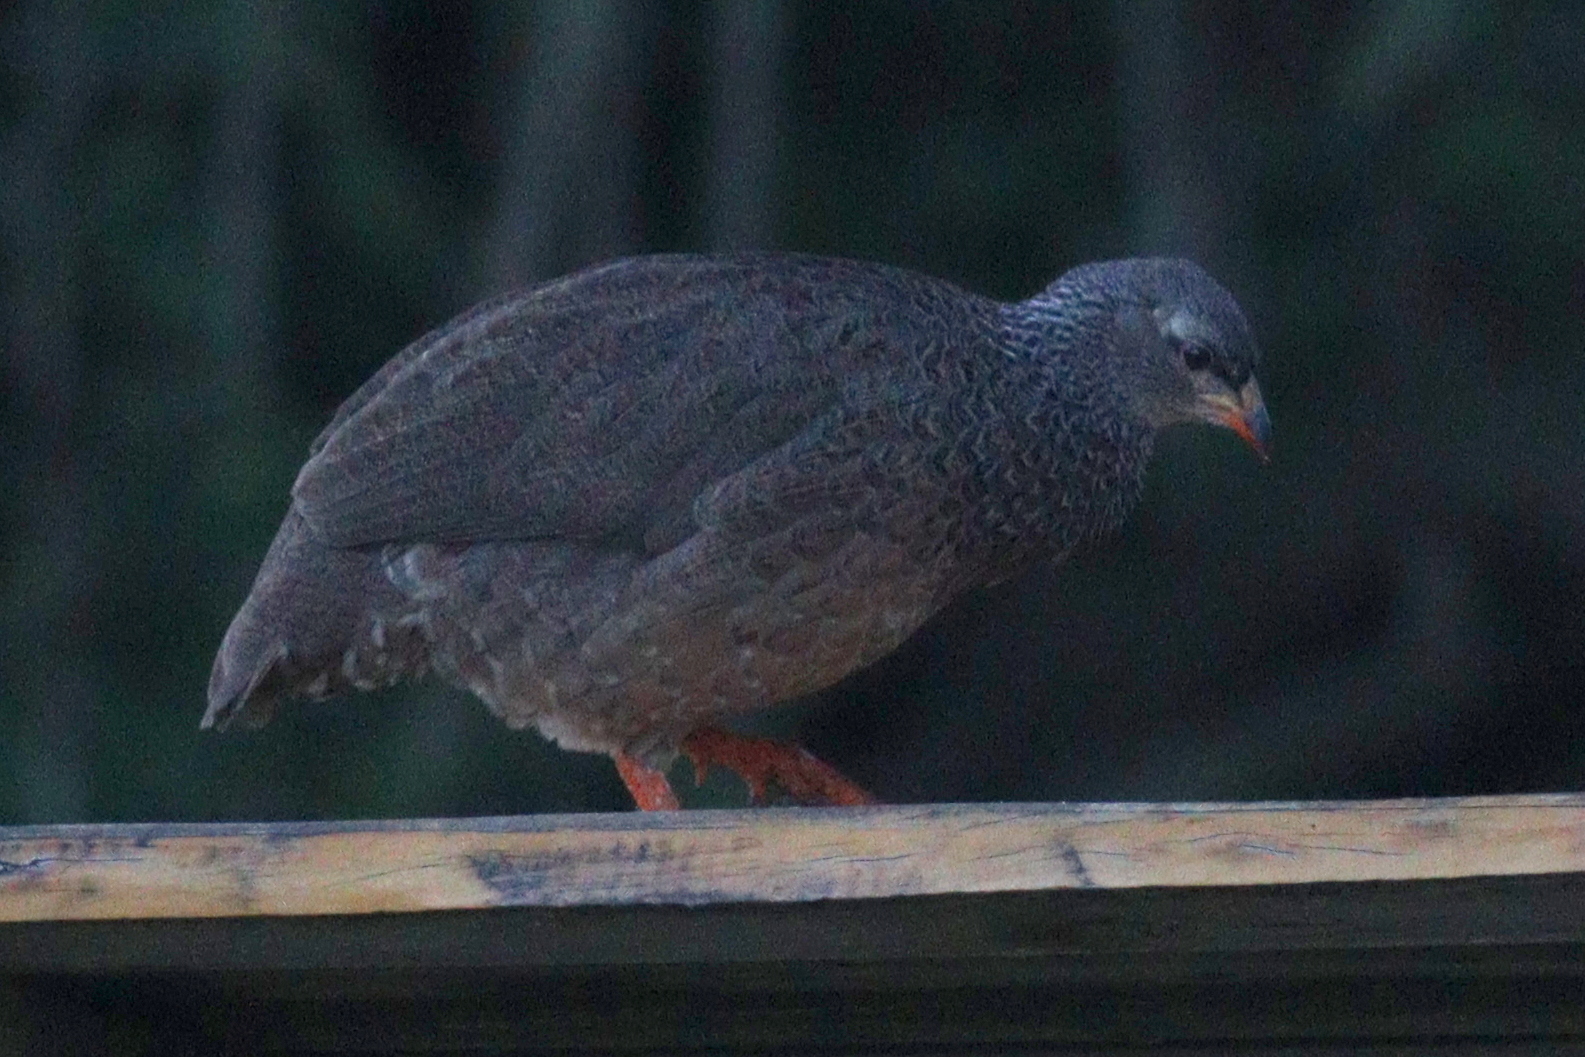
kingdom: Animalia
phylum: Chordata
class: Aves
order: Galliformes
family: Phasianidae
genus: Pternistis
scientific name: Pternistis hildebrandti
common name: Hildebrandt's francolin
